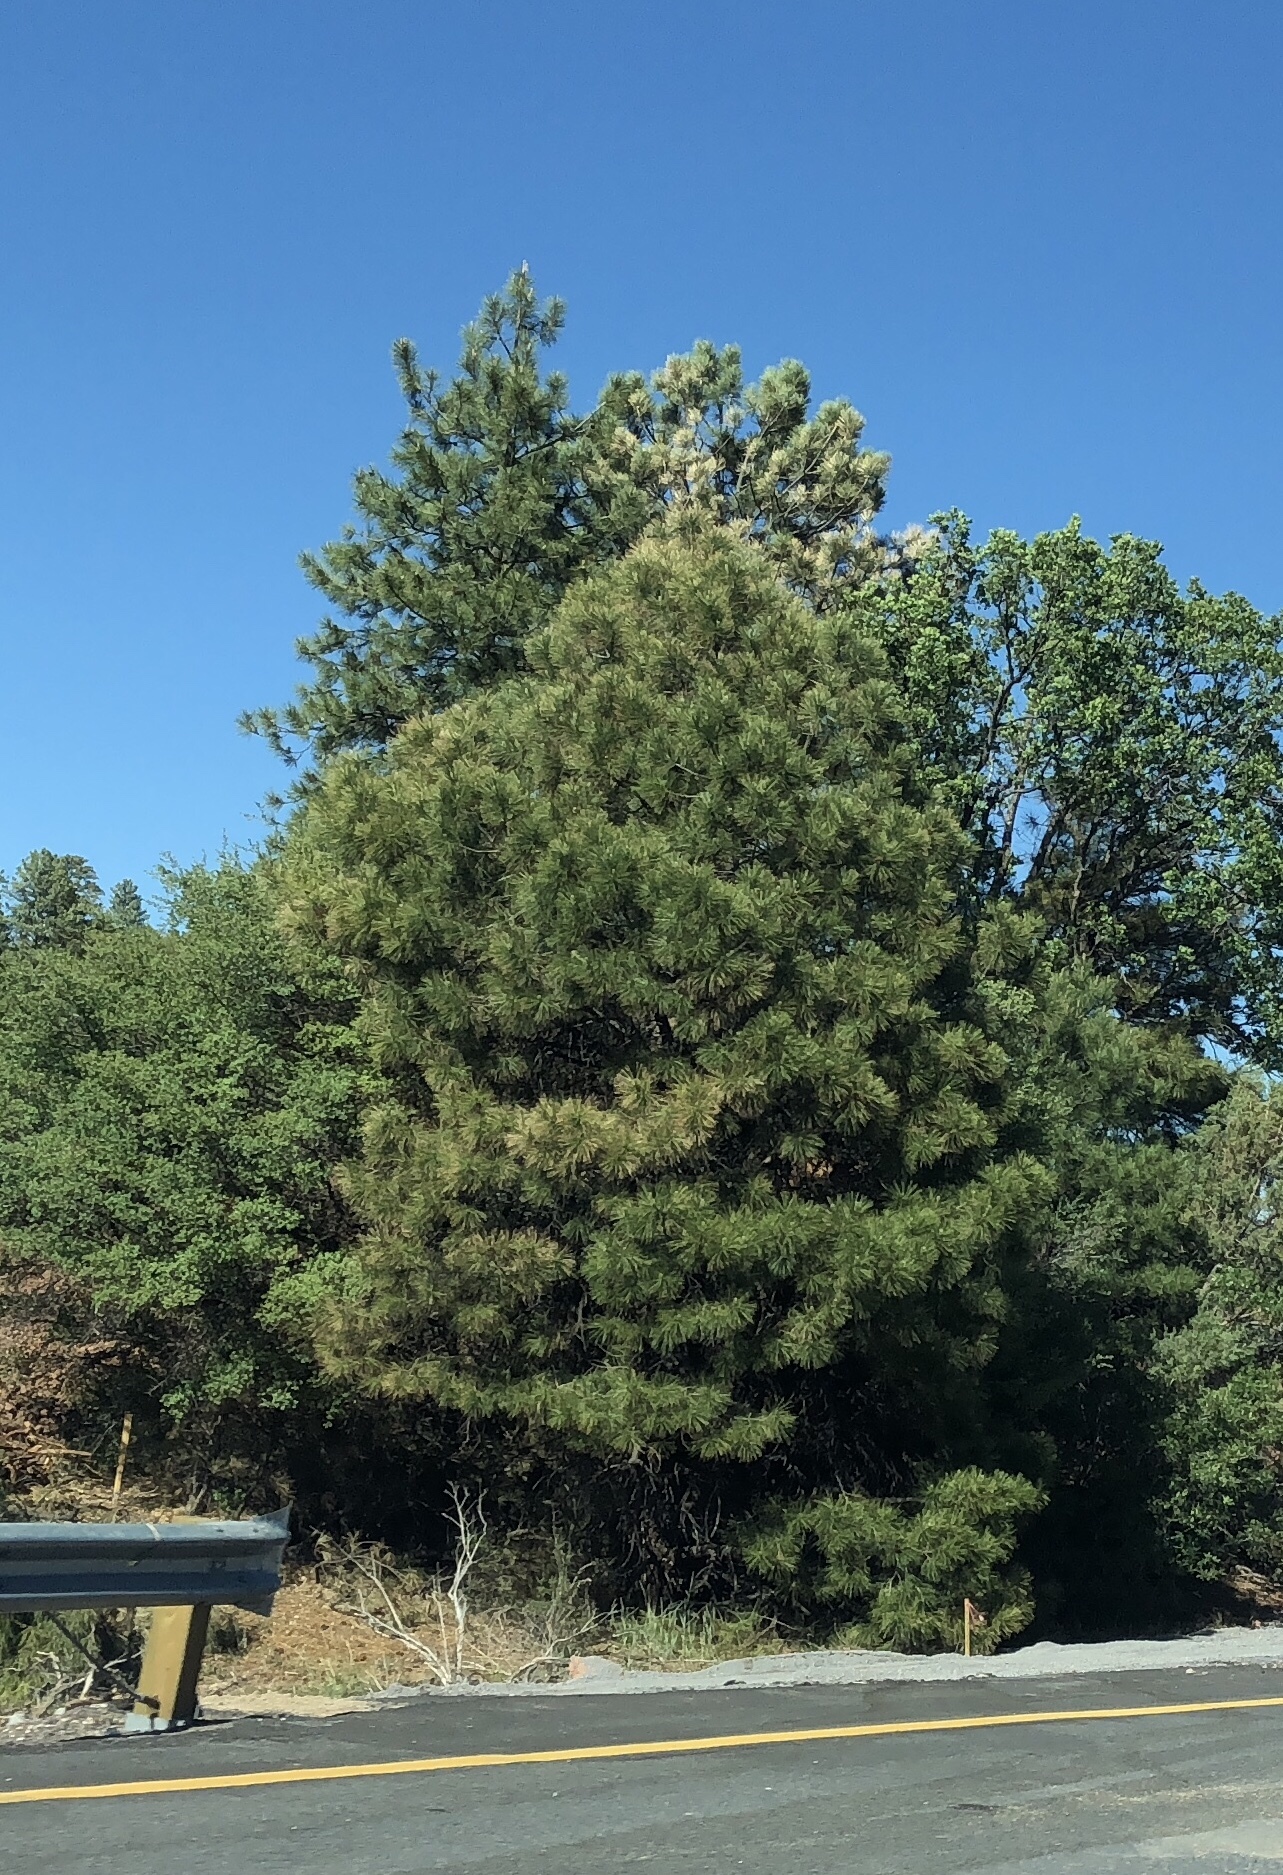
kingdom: Plantae
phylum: Tracheophyta
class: Pinopsida
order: Pinales
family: Pinaceae
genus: Pinus
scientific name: Pinus ponderosa
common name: Western yellow-pine
